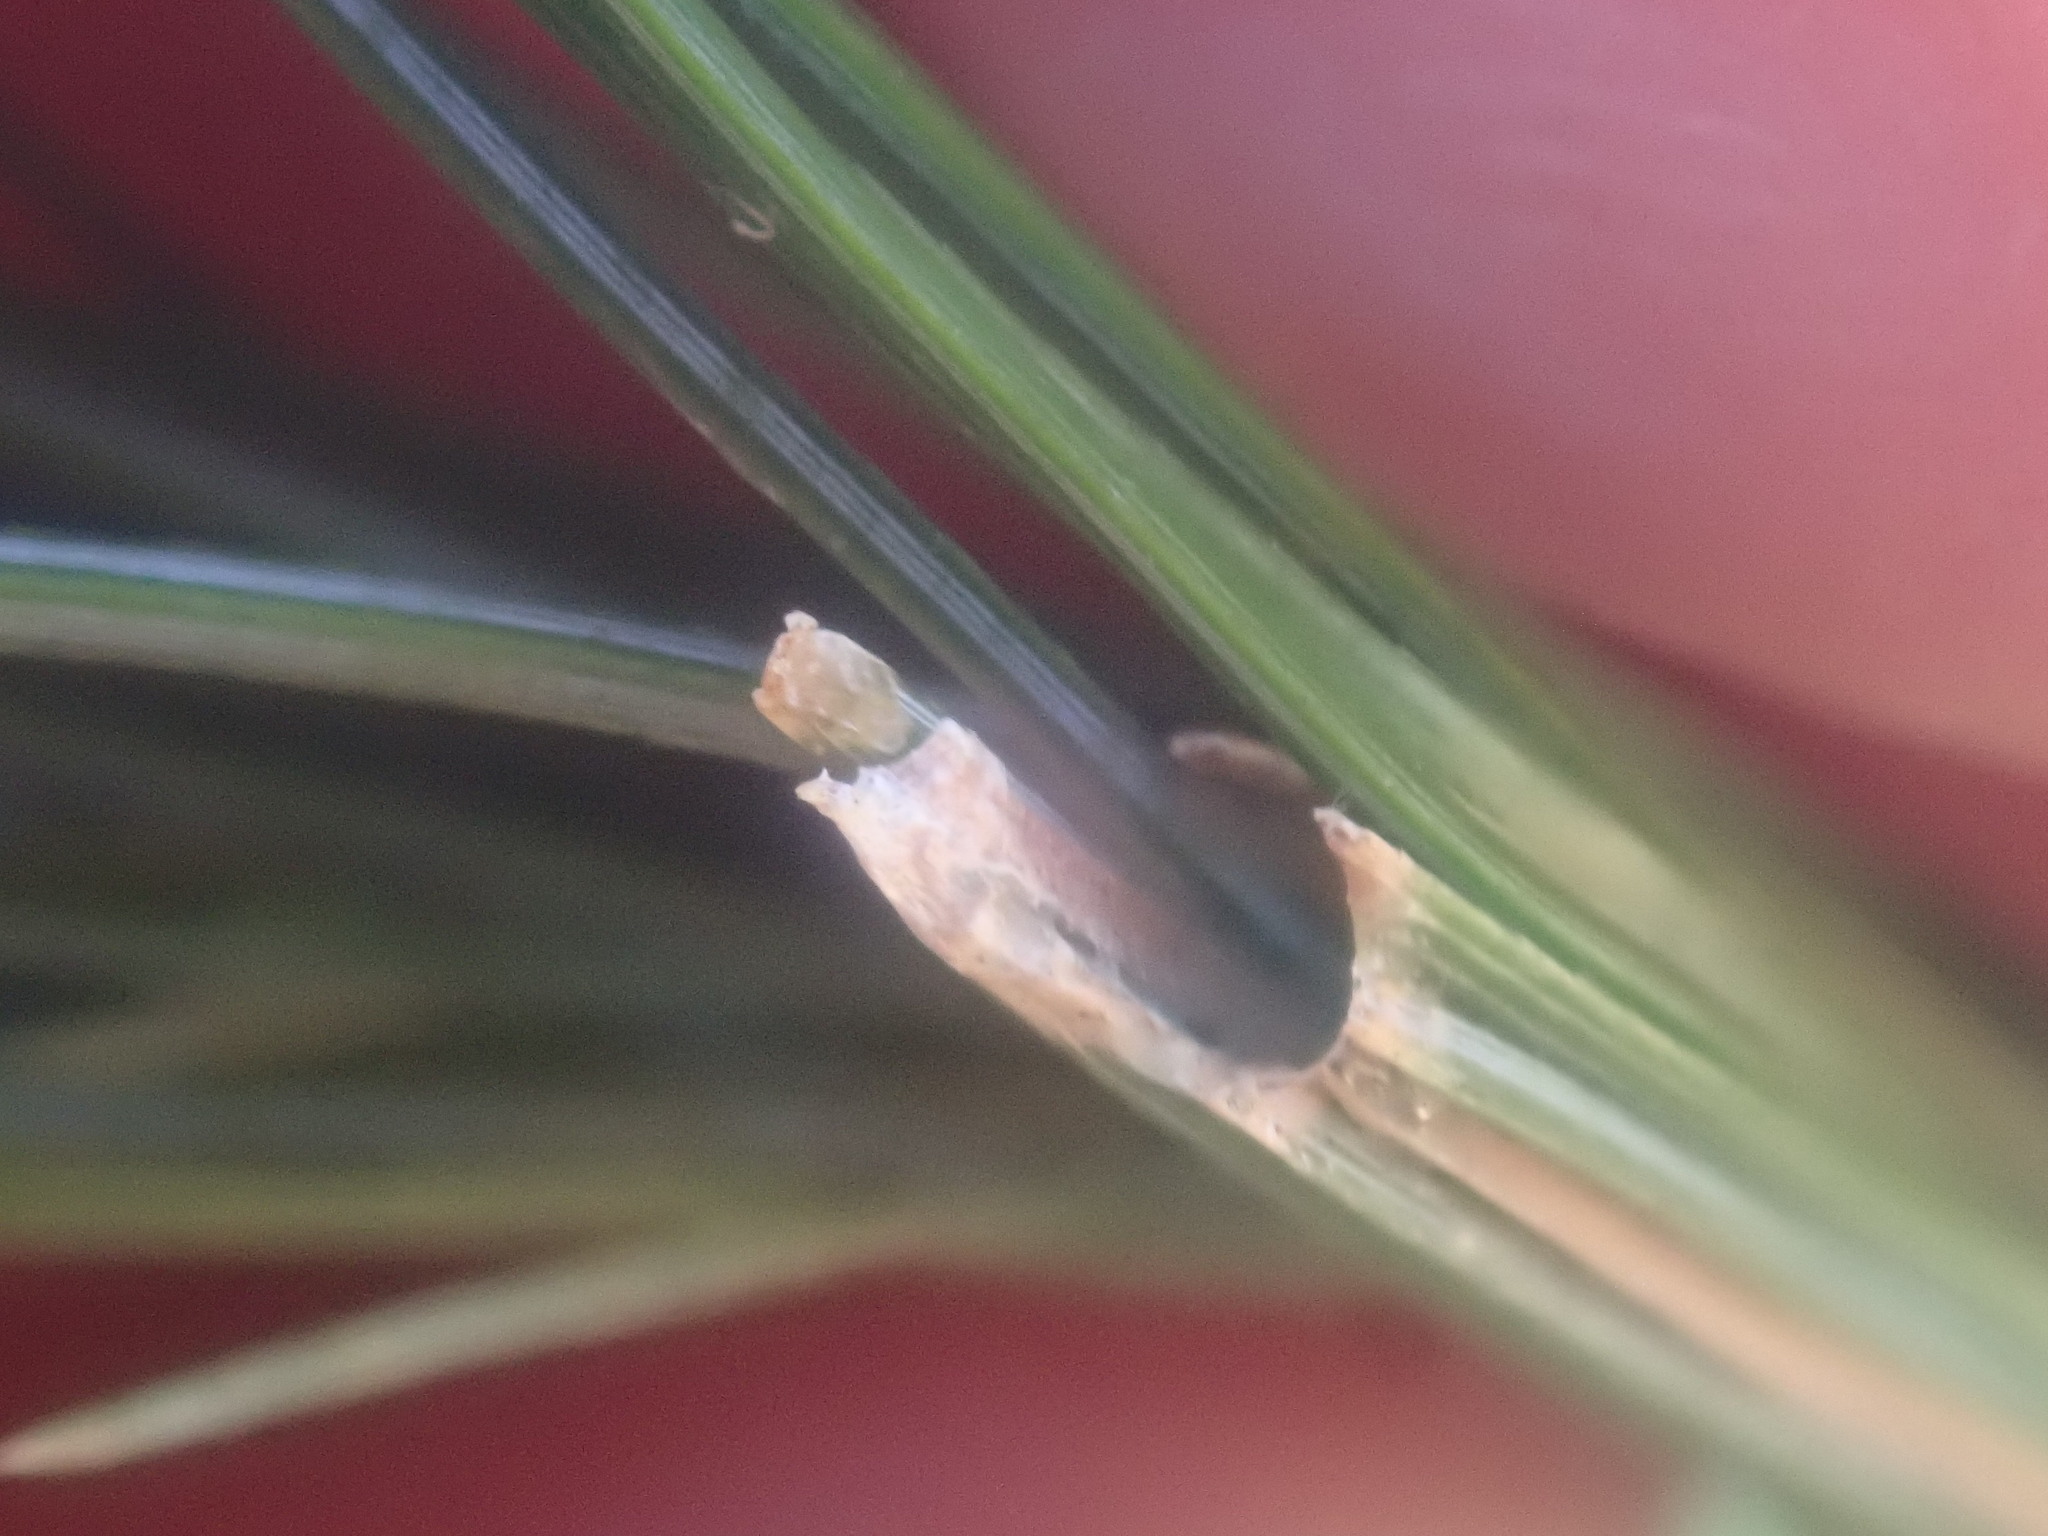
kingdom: Animalia
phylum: Arthropoda
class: Insecta
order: Lepidoptera
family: Tortricidae
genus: Argyrotaenia
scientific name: Argyrotaenia pinatubana
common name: Pine tube moth
